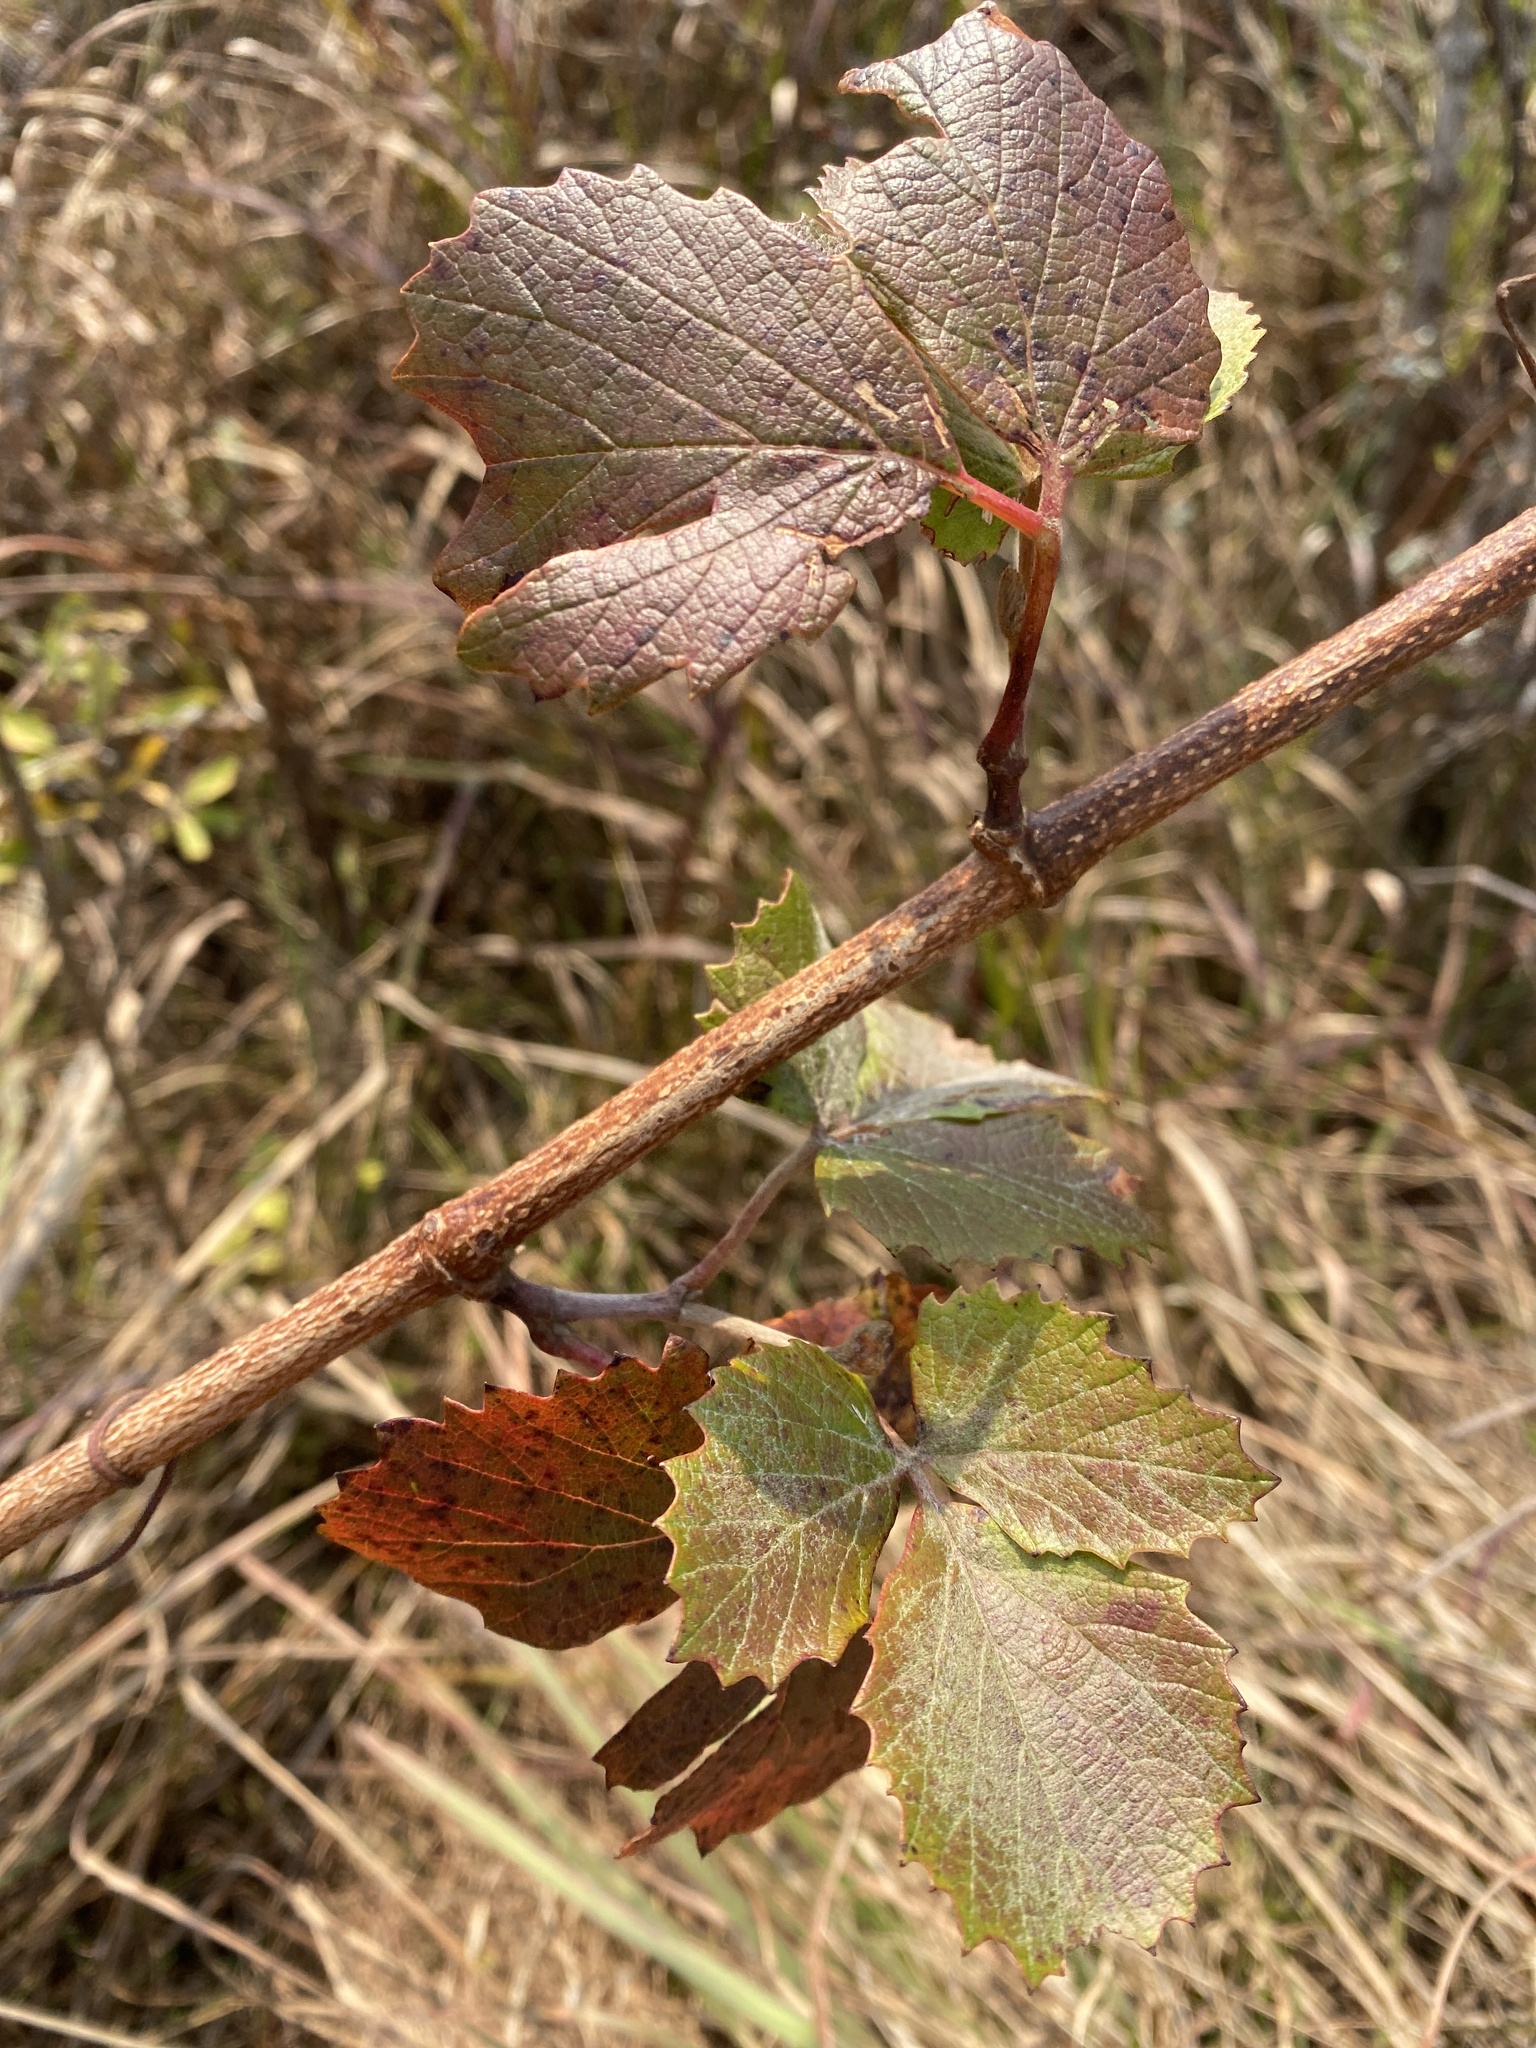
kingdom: Plantae
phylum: Tracheophyta
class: Magnoliopsida
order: Vitales
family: Vitaceae
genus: Rhoicissus
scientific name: Rhoicissus tridentata
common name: Common forest grape
